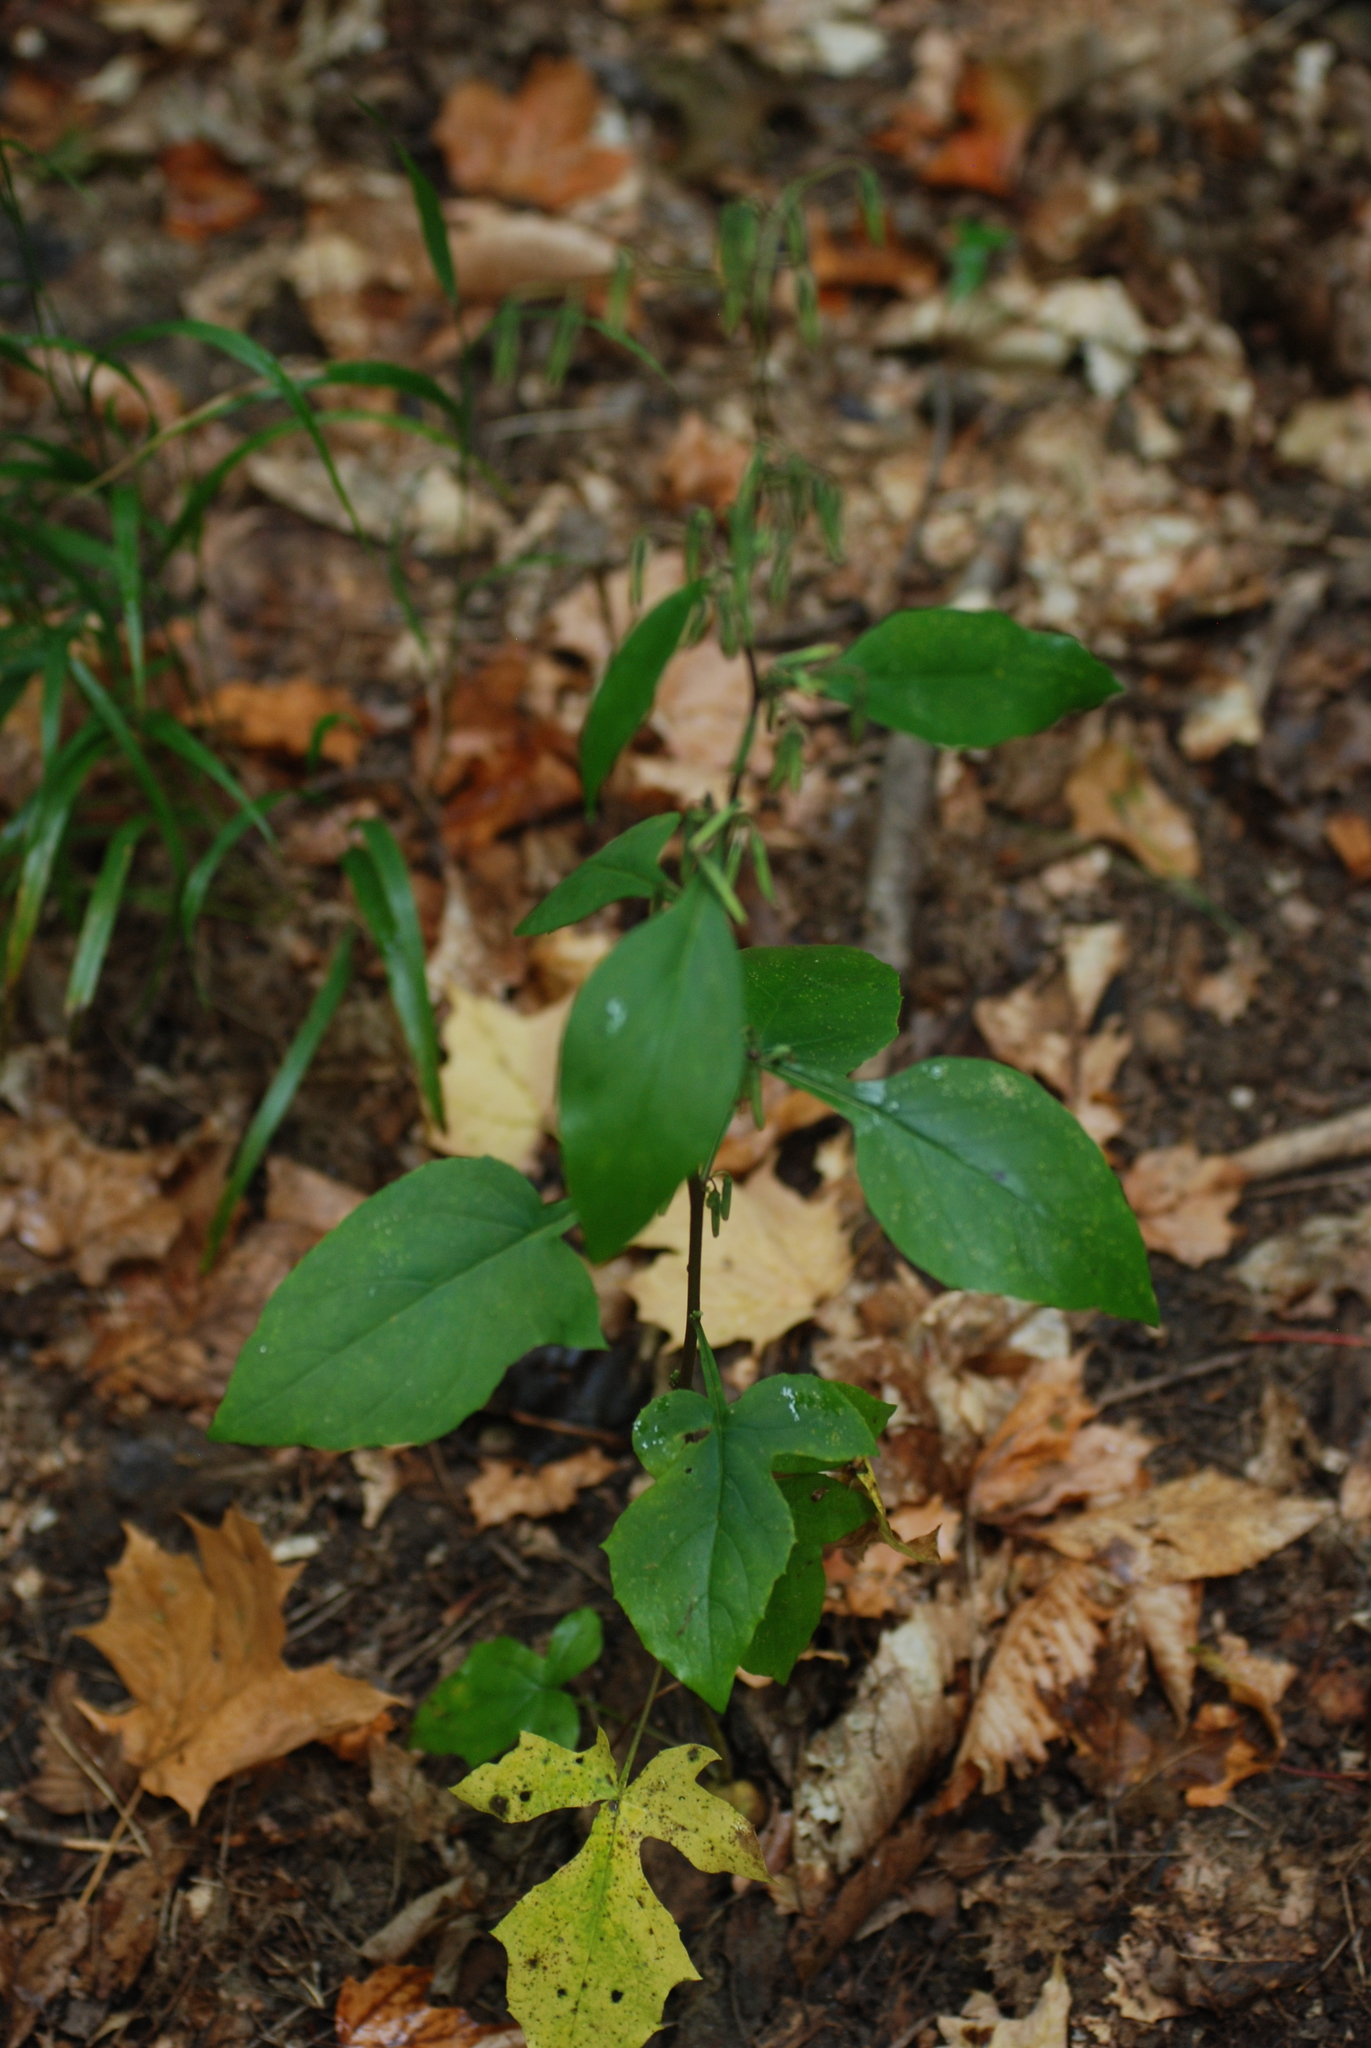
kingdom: Plantae
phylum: Tracheophyta
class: Magnoliopsida
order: Asterales
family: Asteraceae
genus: Nabalus
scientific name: Nabalus altissima
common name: Tall rattlesnakeroot
